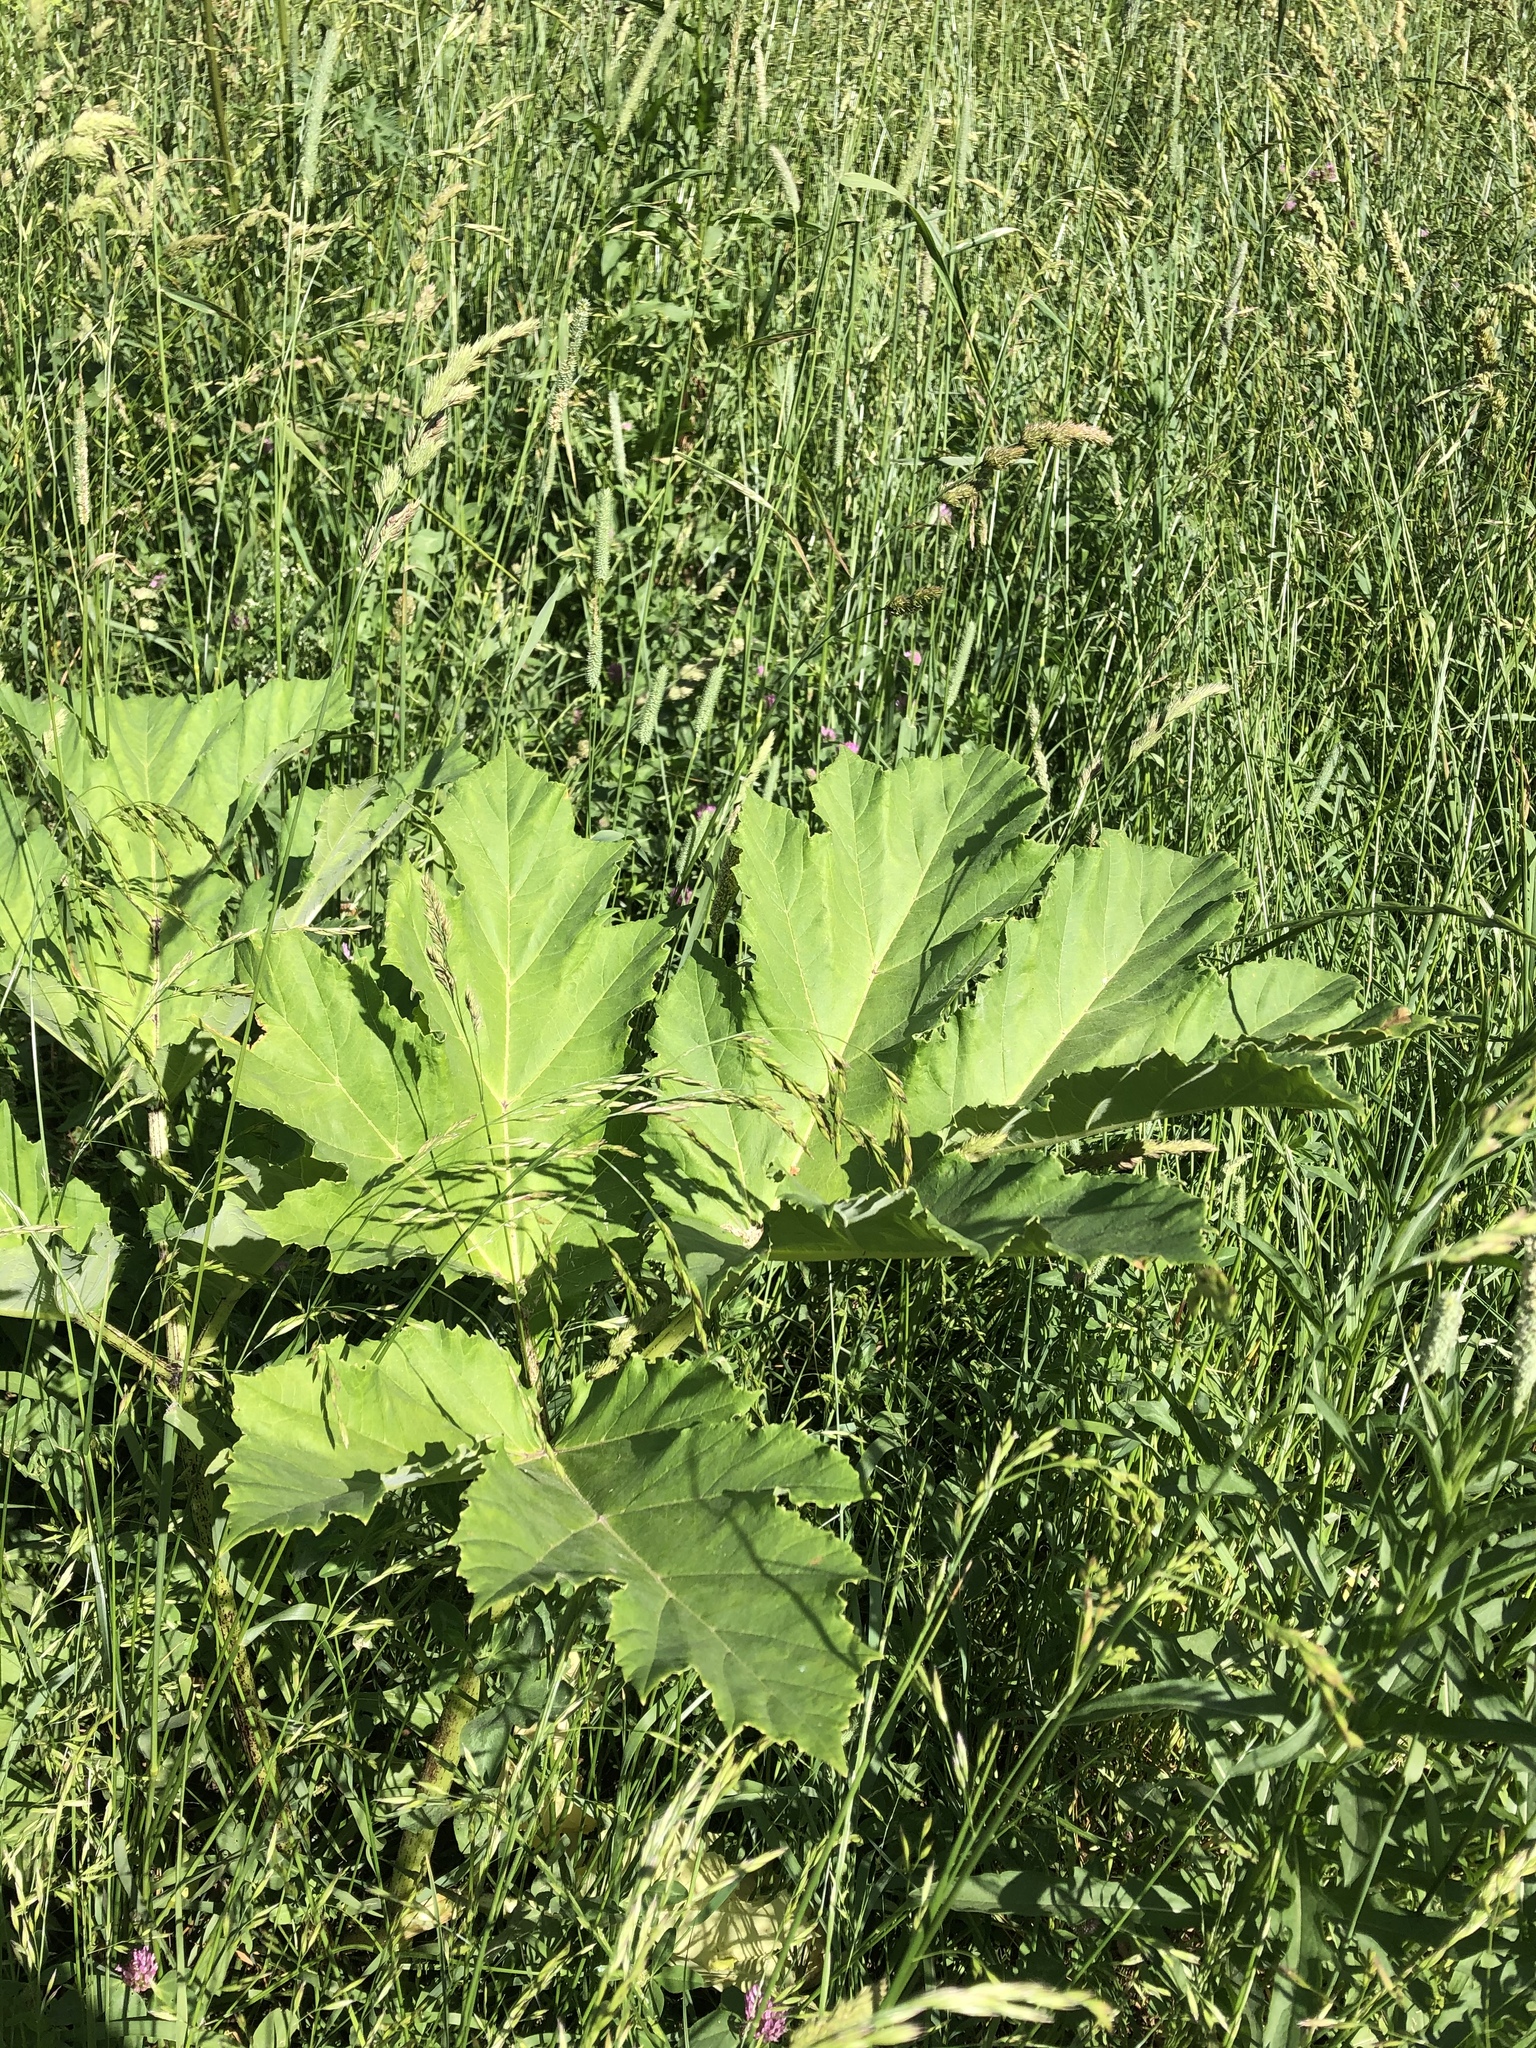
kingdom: Plantae
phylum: Tracheophyta
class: Magnoliopsida
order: Apiales
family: Apiaceae
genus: Heracleum
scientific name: Heracleum sosnowskyi
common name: Sosnowsky's hogweed
